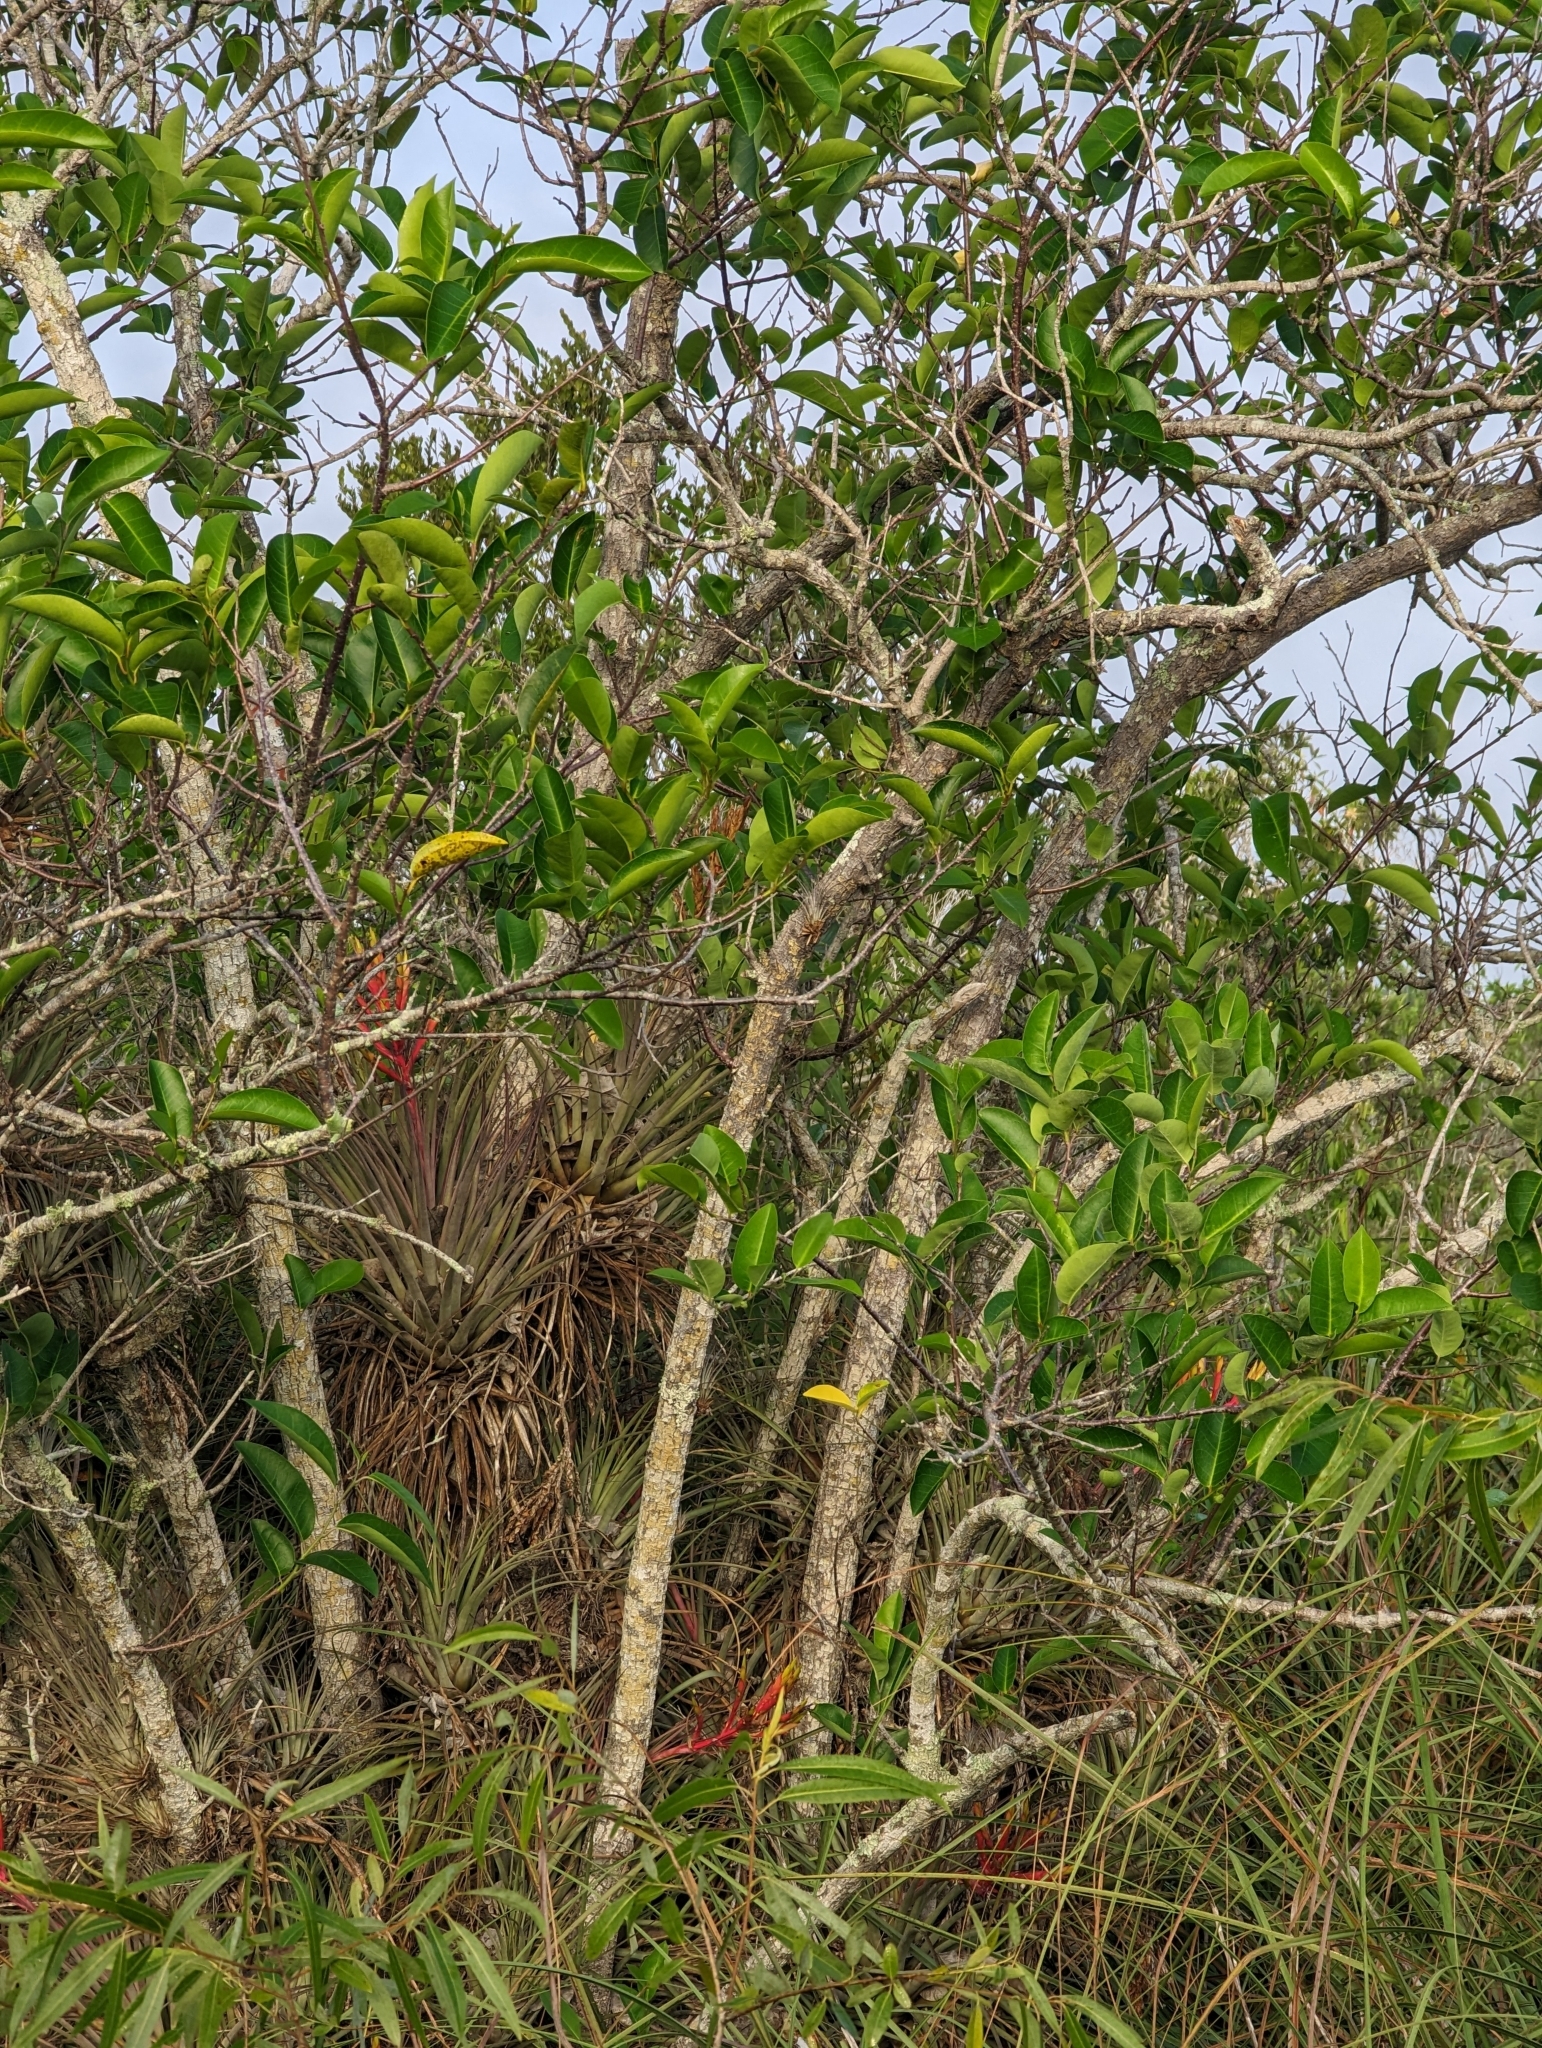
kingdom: Plantae
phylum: Tracheophyta
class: Magnoliopsida
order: Magnoliales
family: Annonaceae
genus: Annona
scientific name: Annona glabra
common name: Monkey apple
